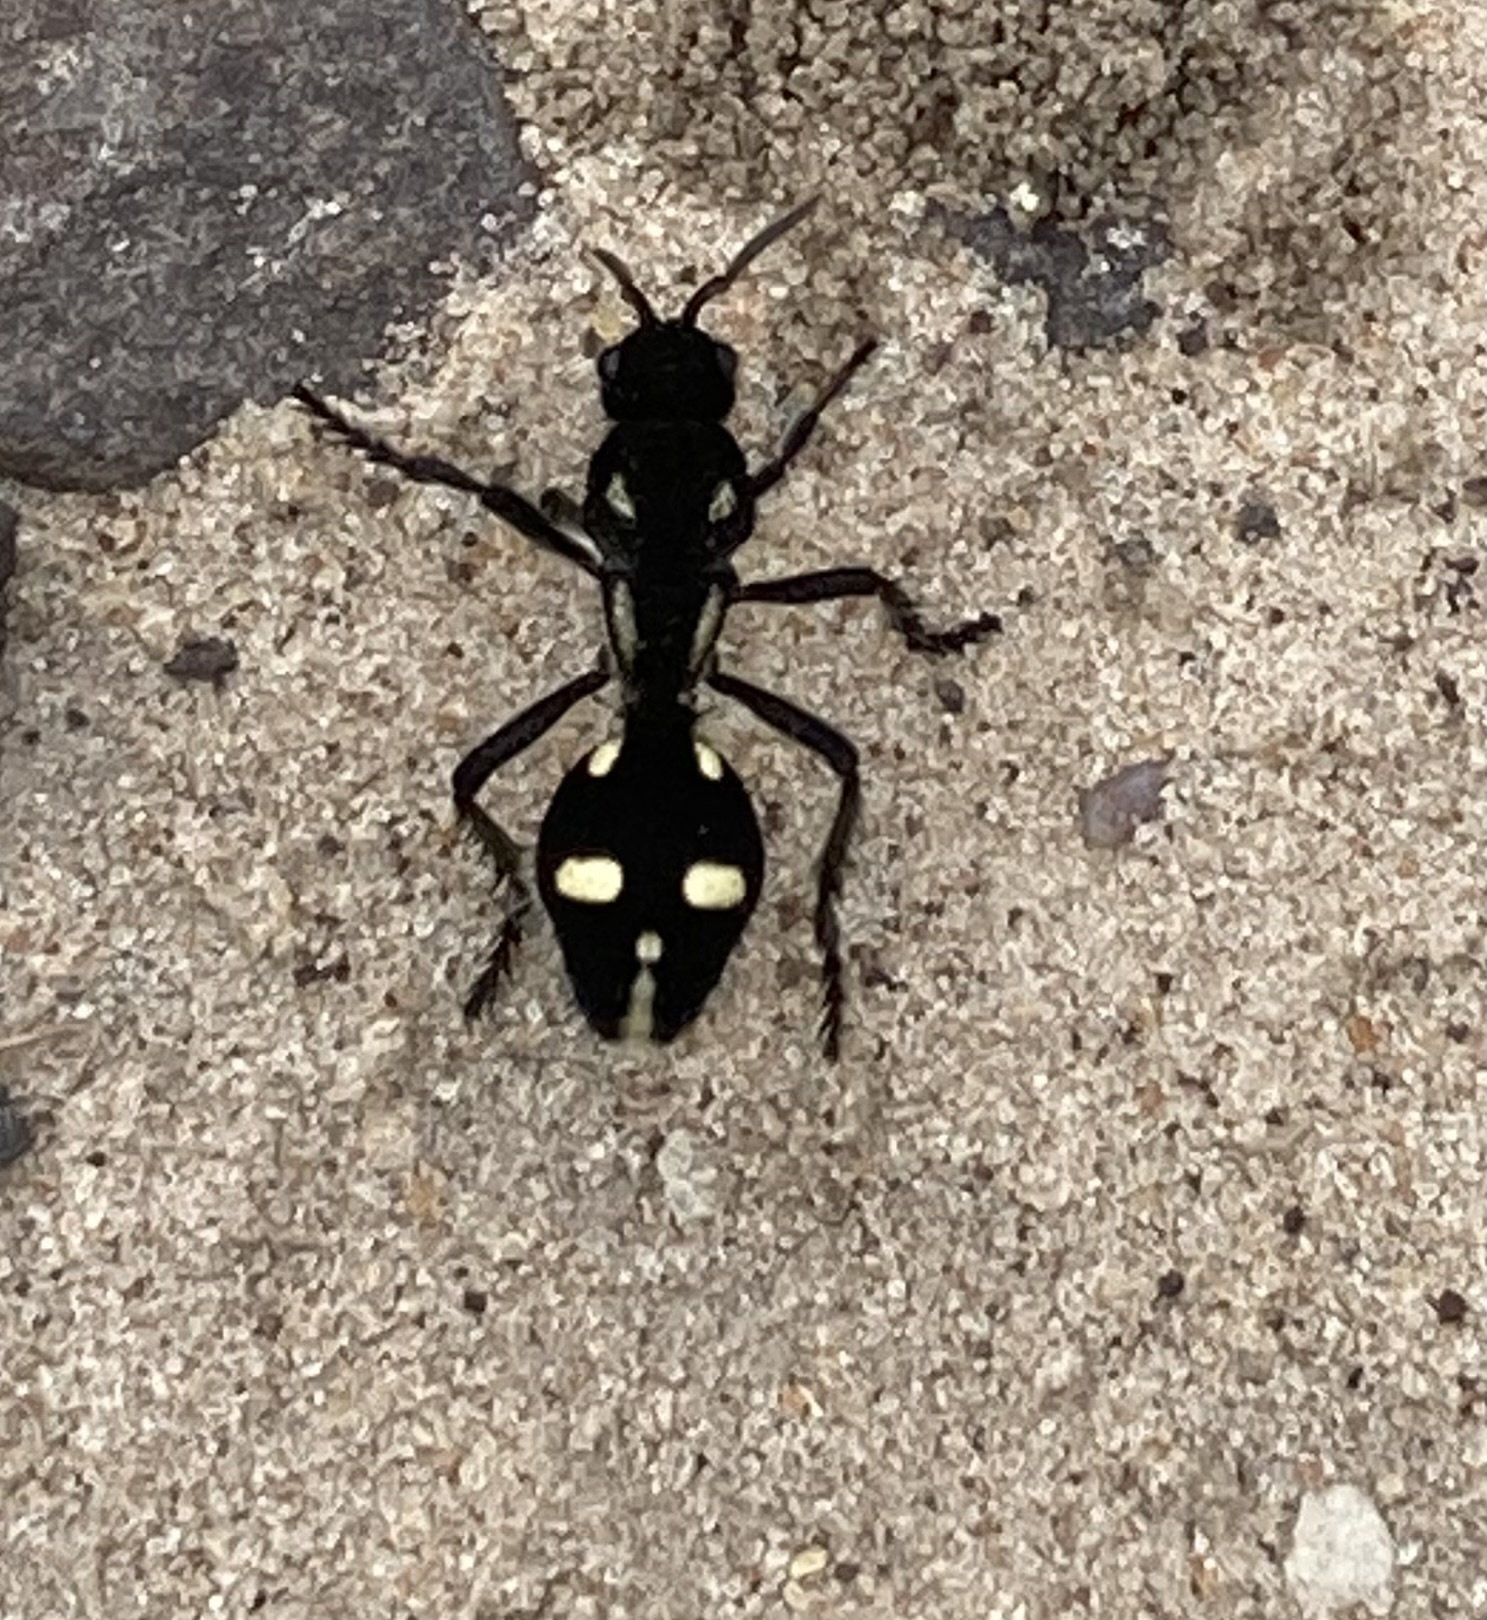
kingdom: Animalia
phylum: Arthropoda
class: Insecta
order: Hymenoptera
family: Mutillidae
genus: Traumatomutilla
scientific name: Traumatomutilla
